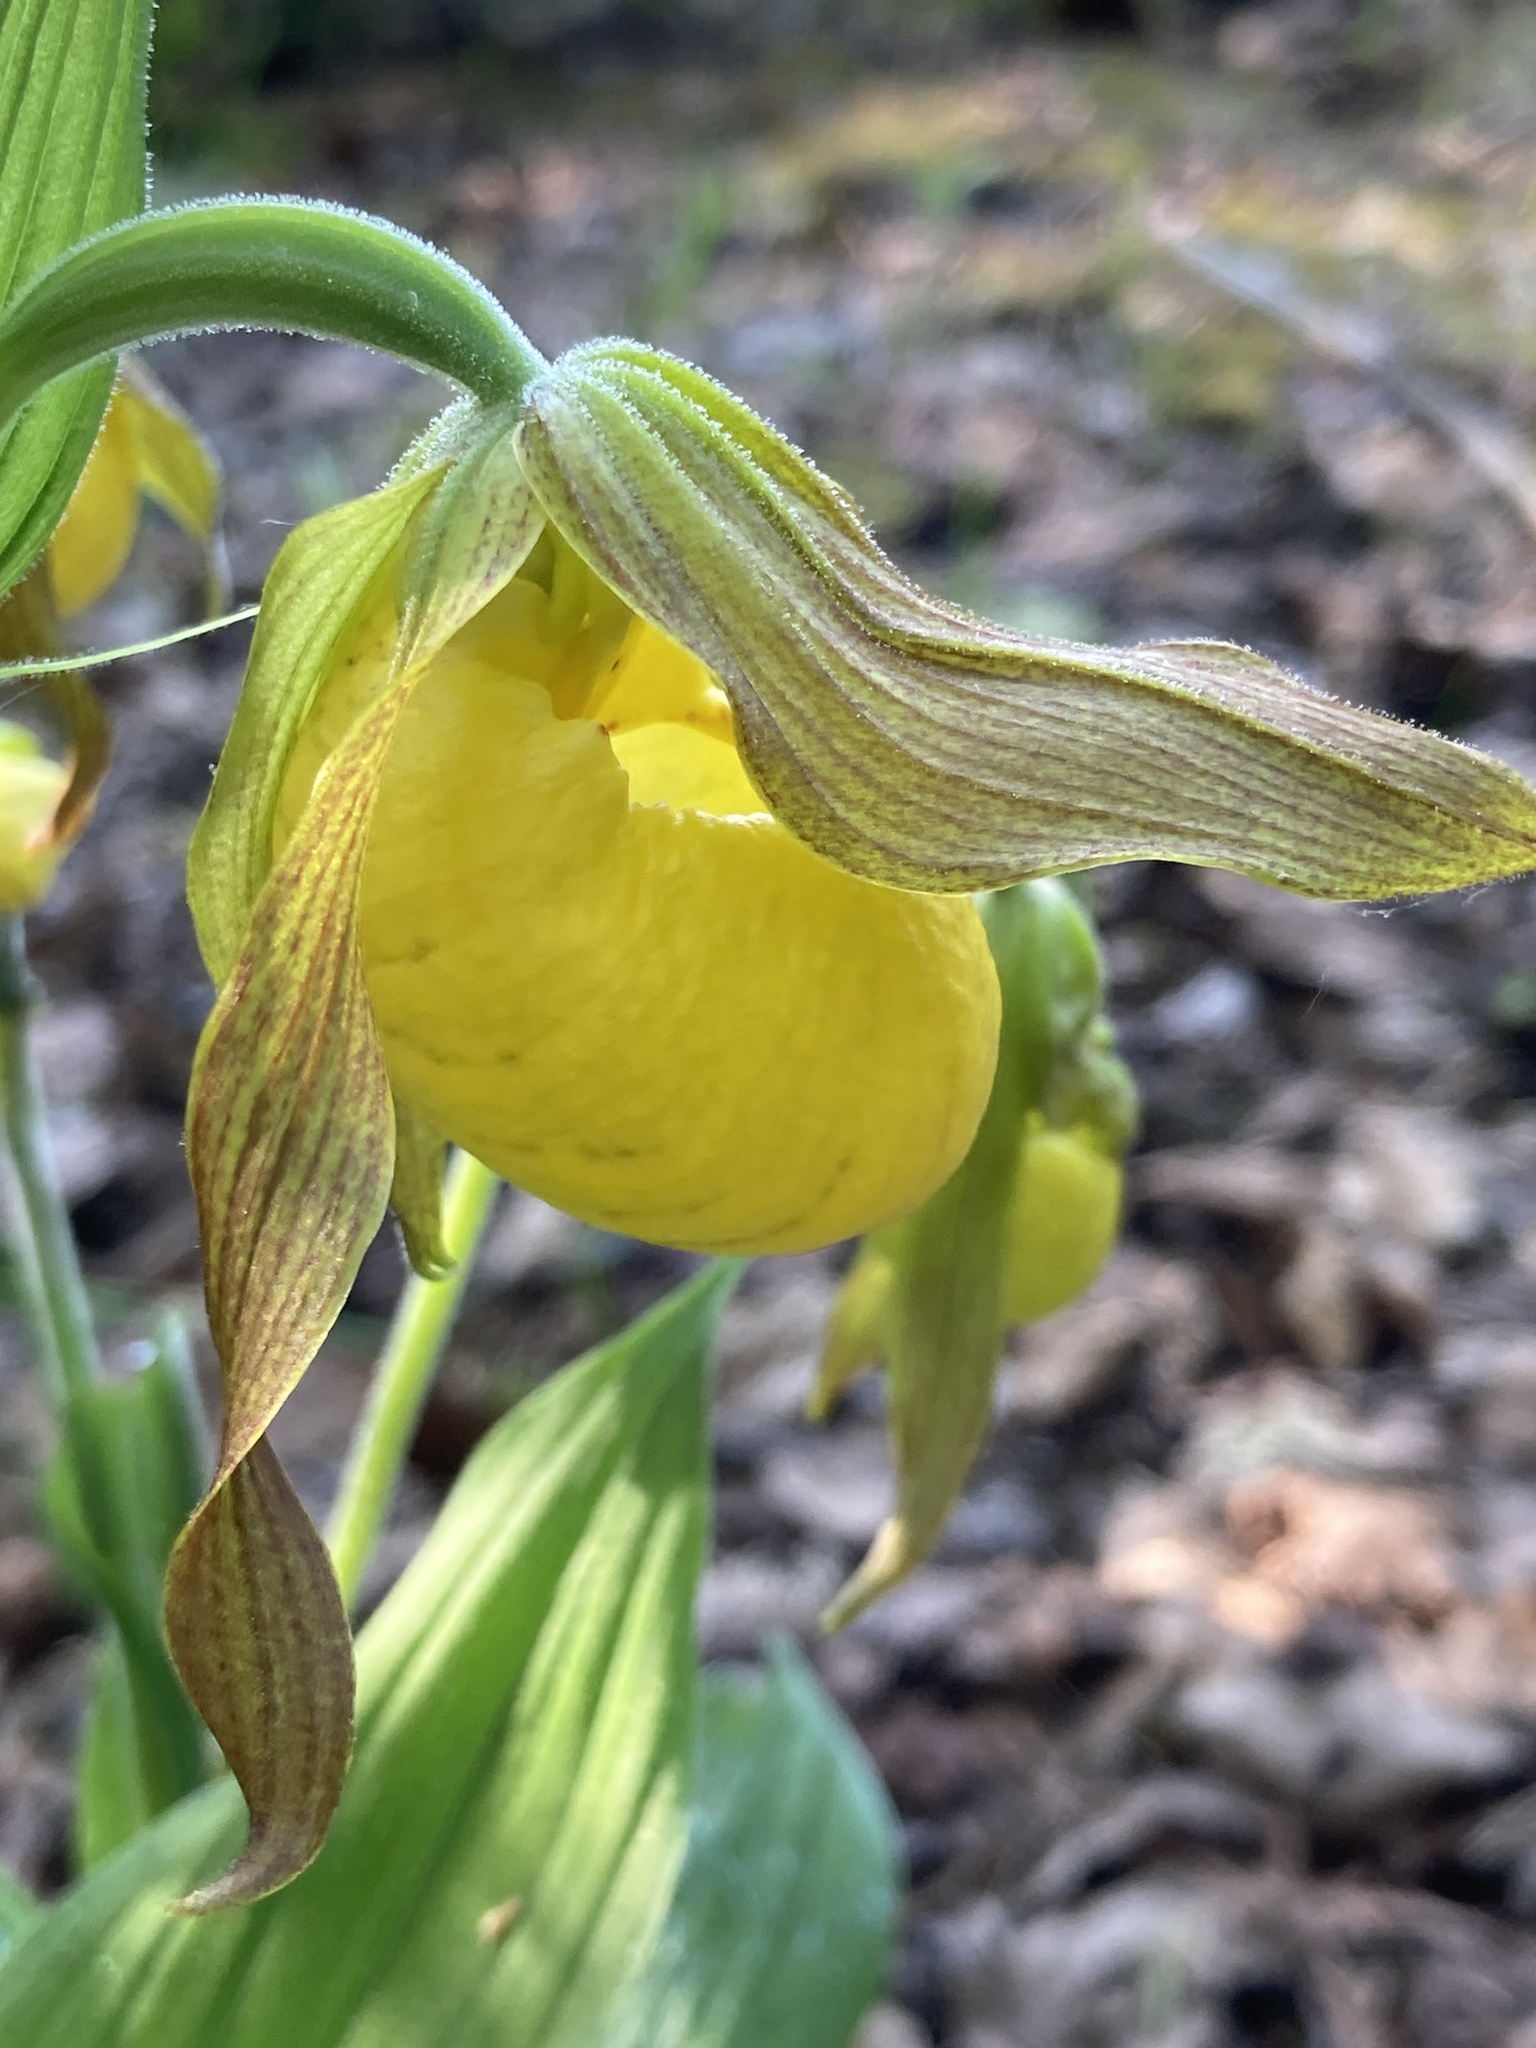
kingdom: Plantae
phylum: Tracheophyta
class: Liliopsida
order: Asparagales
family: Orchidaceae
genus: Cypripedium
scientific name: Cypripedium parviflorum
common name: American yellow lady's-slipper
